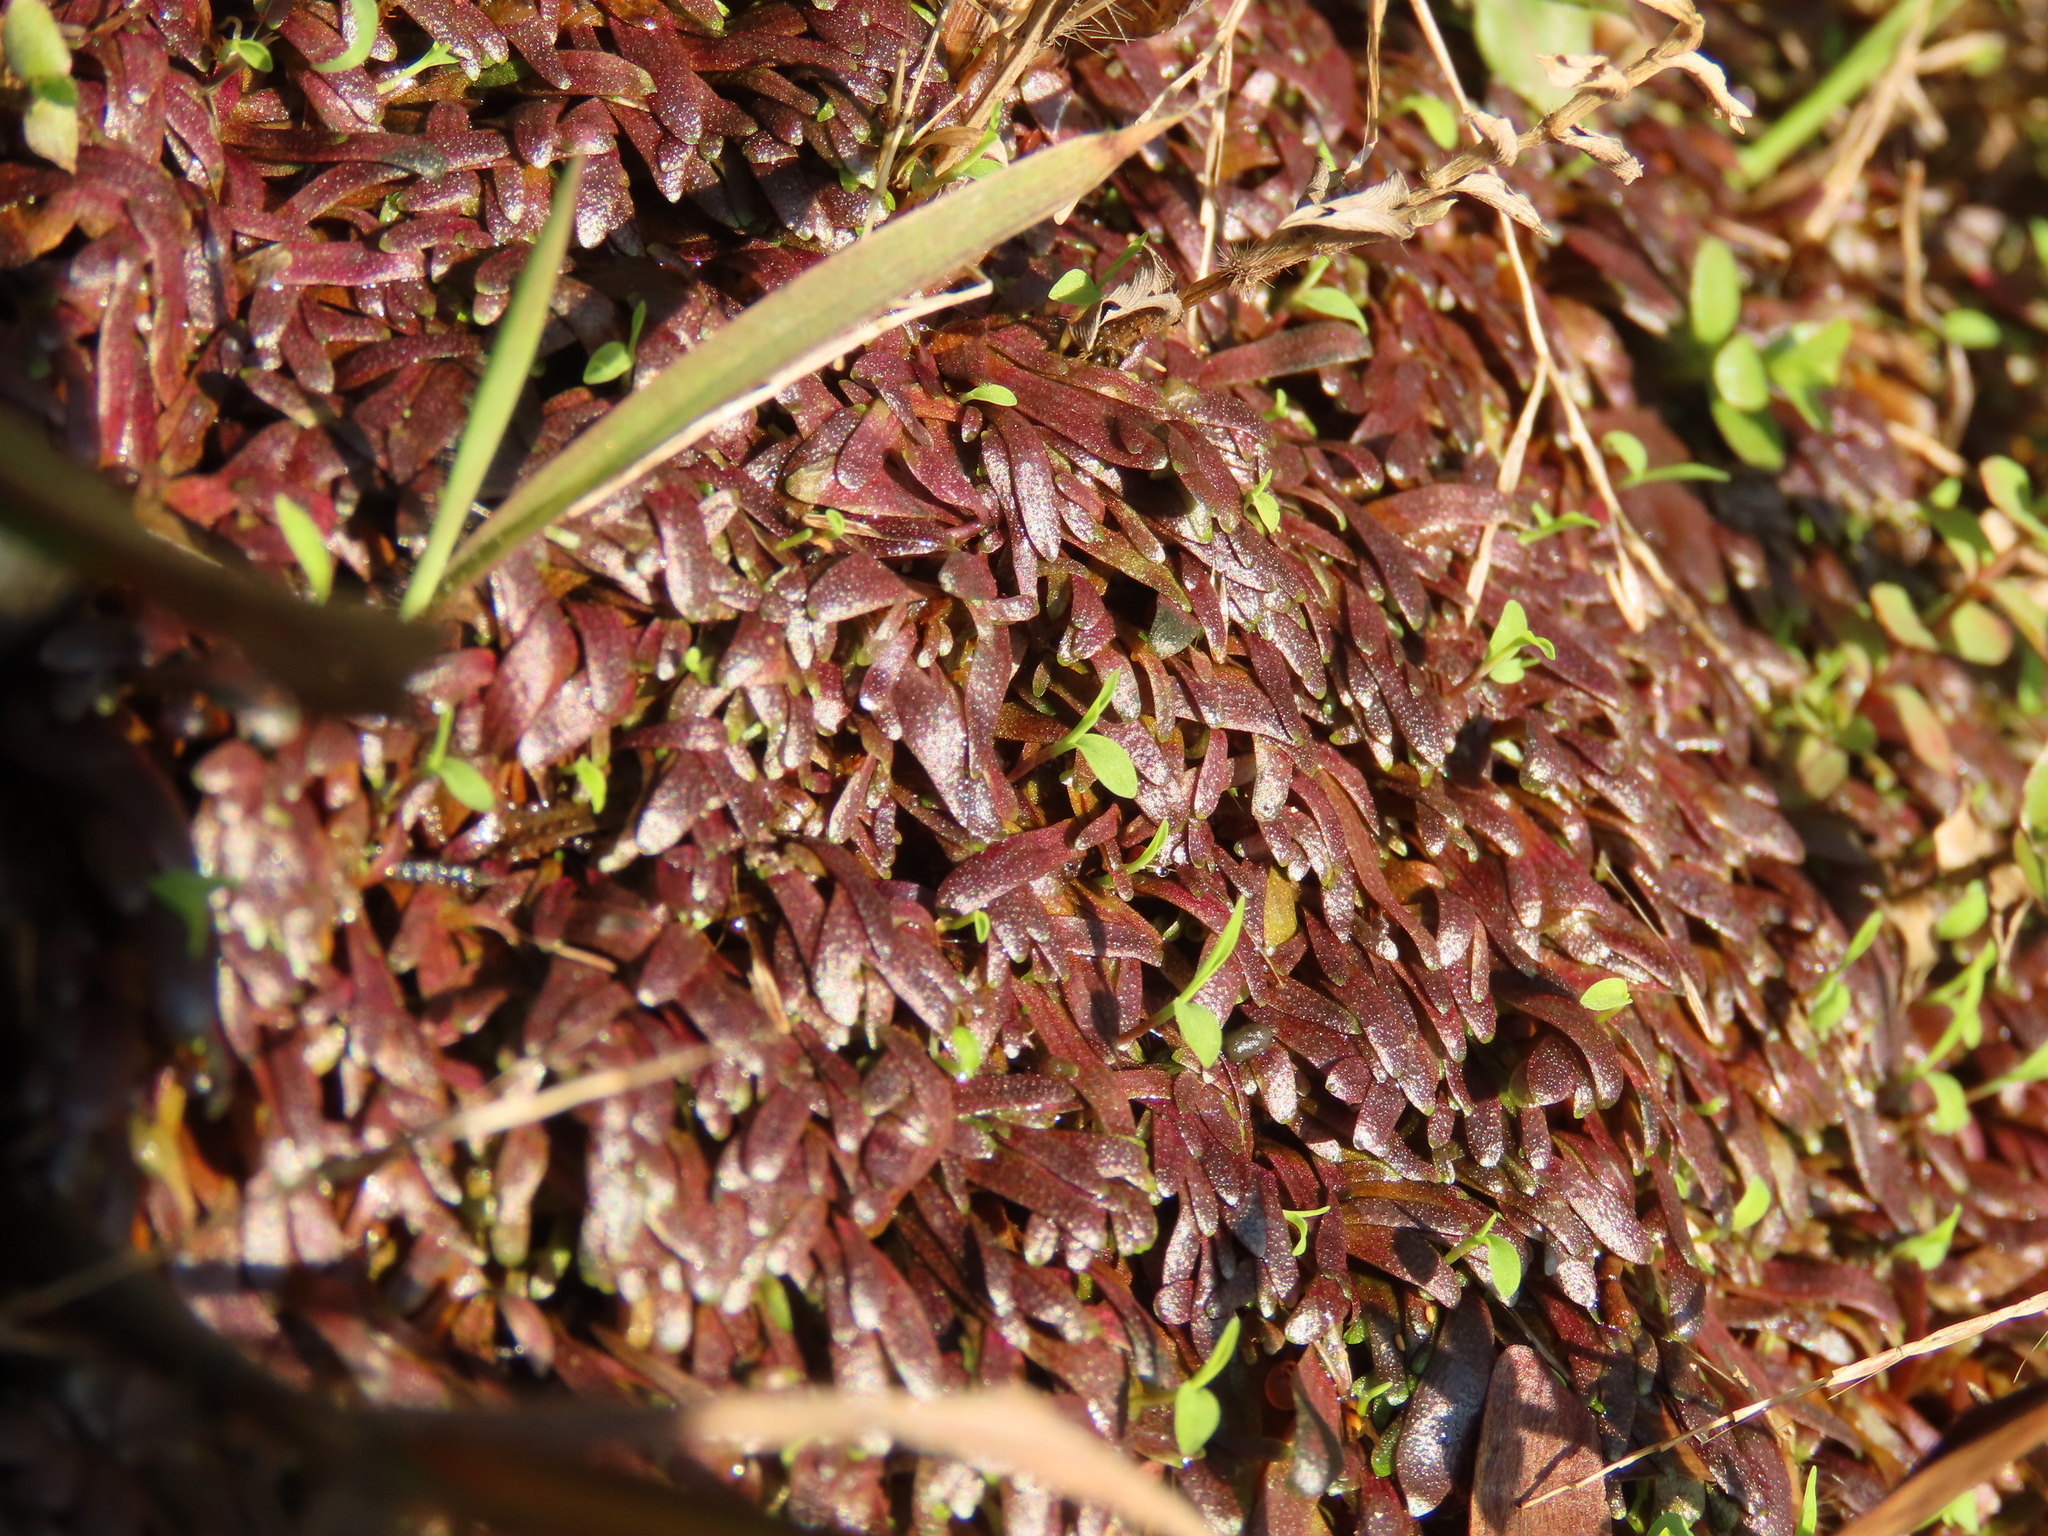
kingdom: Plantae
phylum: Tracheophyta
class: Magnoliopsida
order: Lamiales
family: Lentibulariaceae
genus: Utricularia
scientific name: Utricularia smithiana
